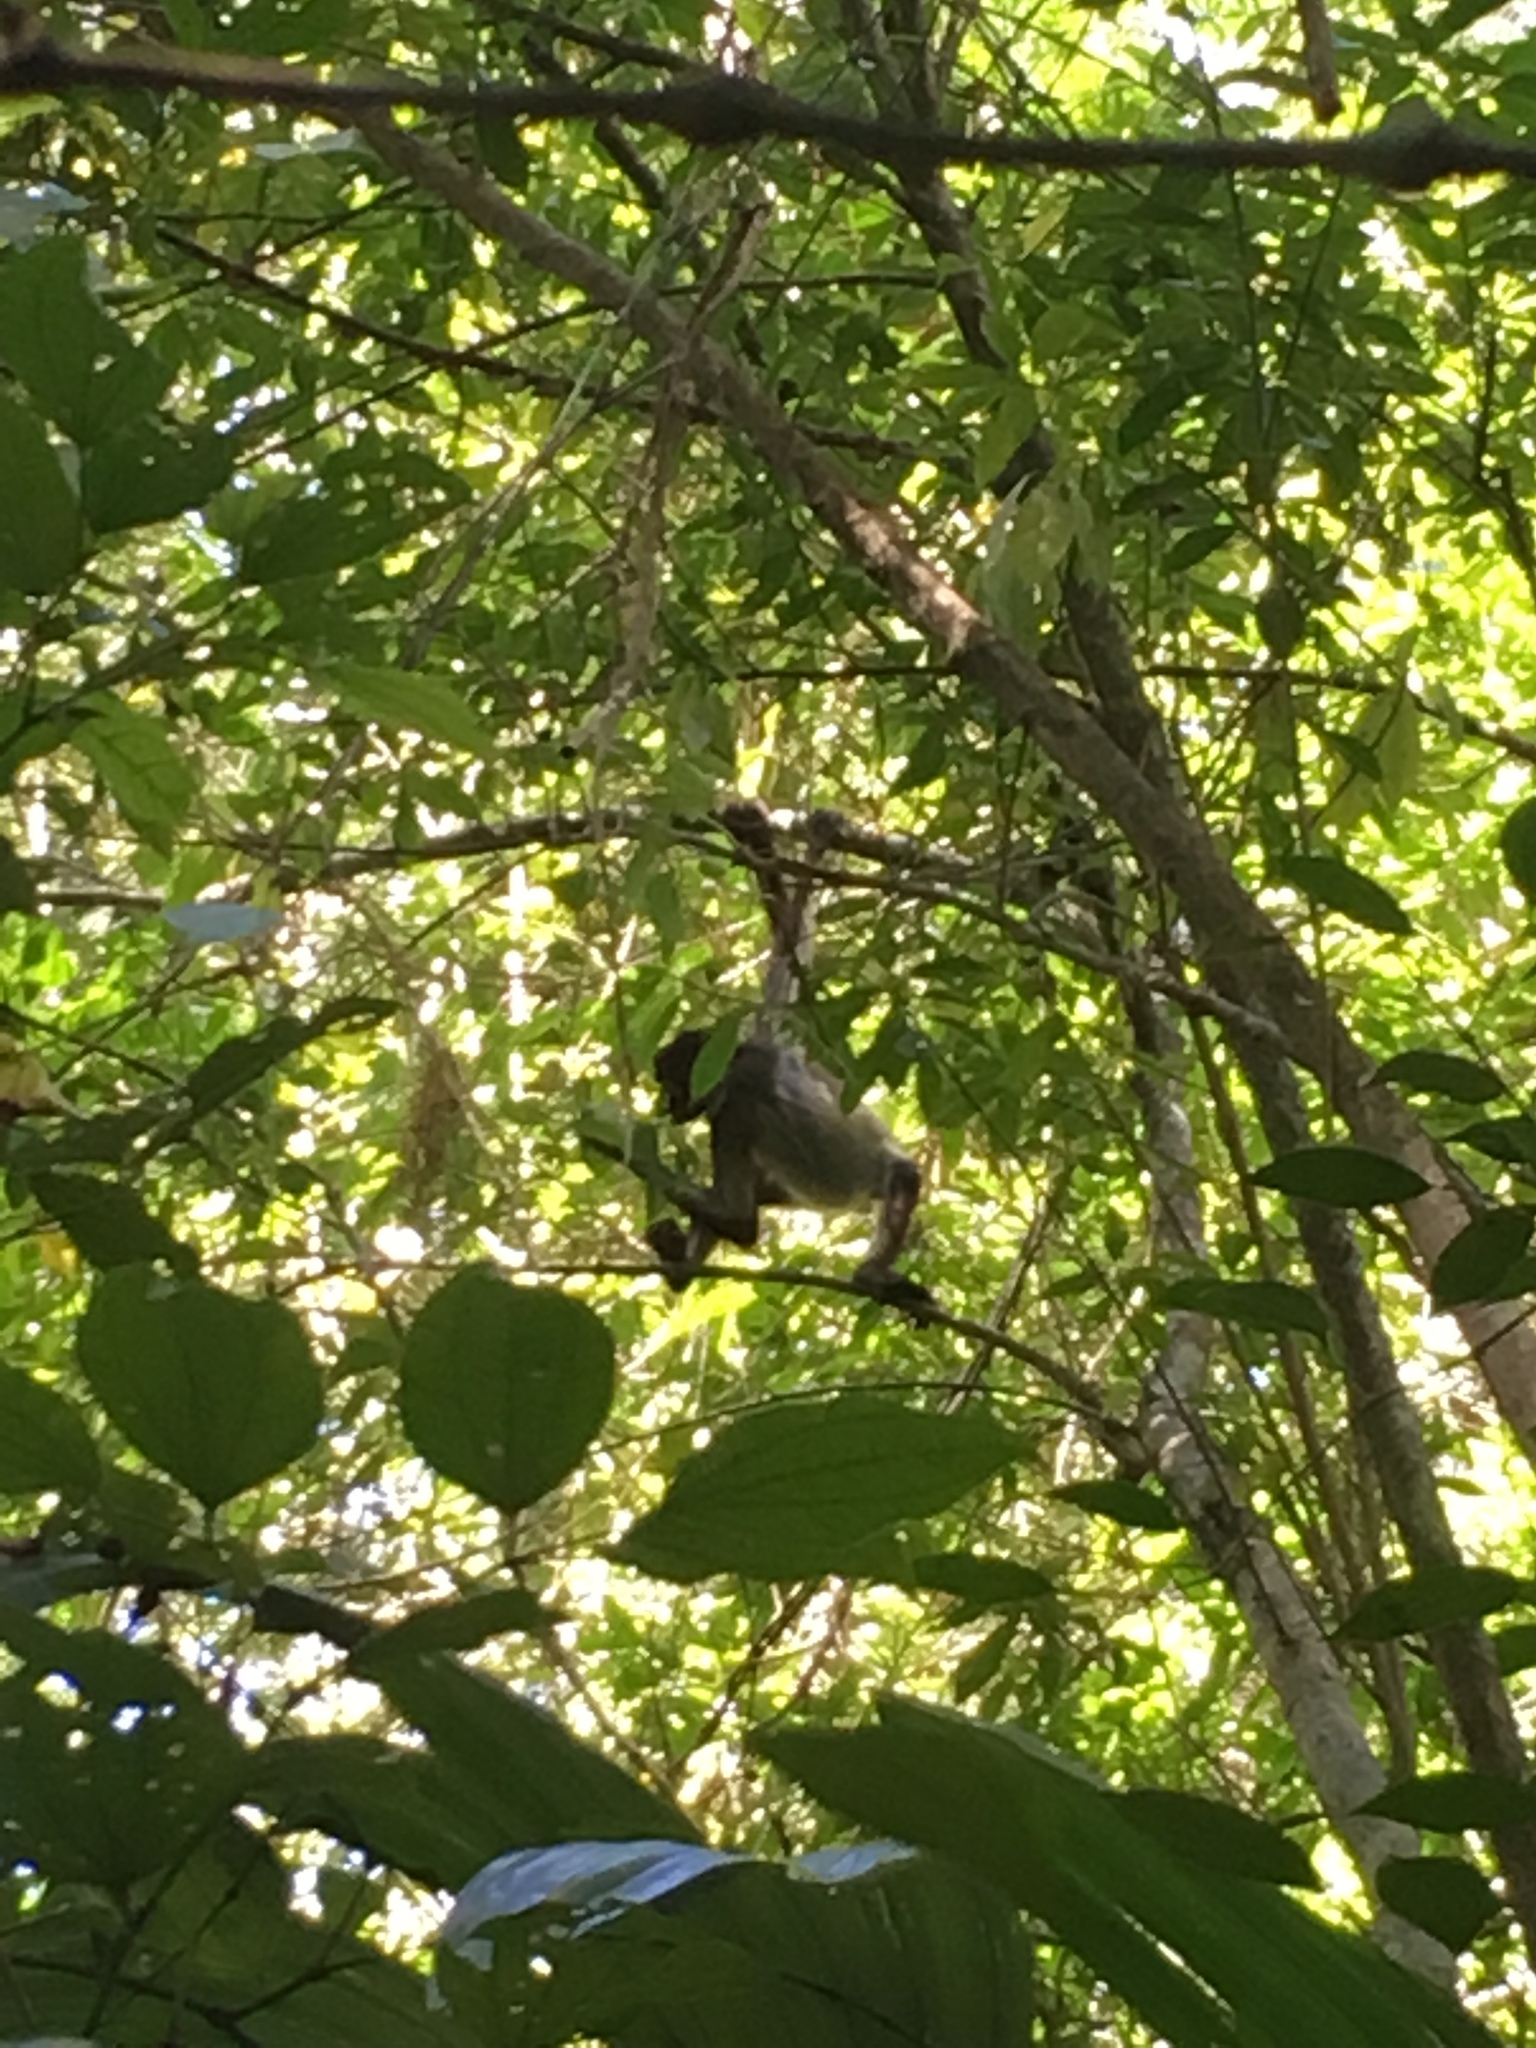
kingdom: Animalia
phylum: Chordata
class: Mammalia
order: Primates
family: Atelidae
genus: Ateles
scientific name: Ateles geoffroyi
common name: Black-handed spider monkey
